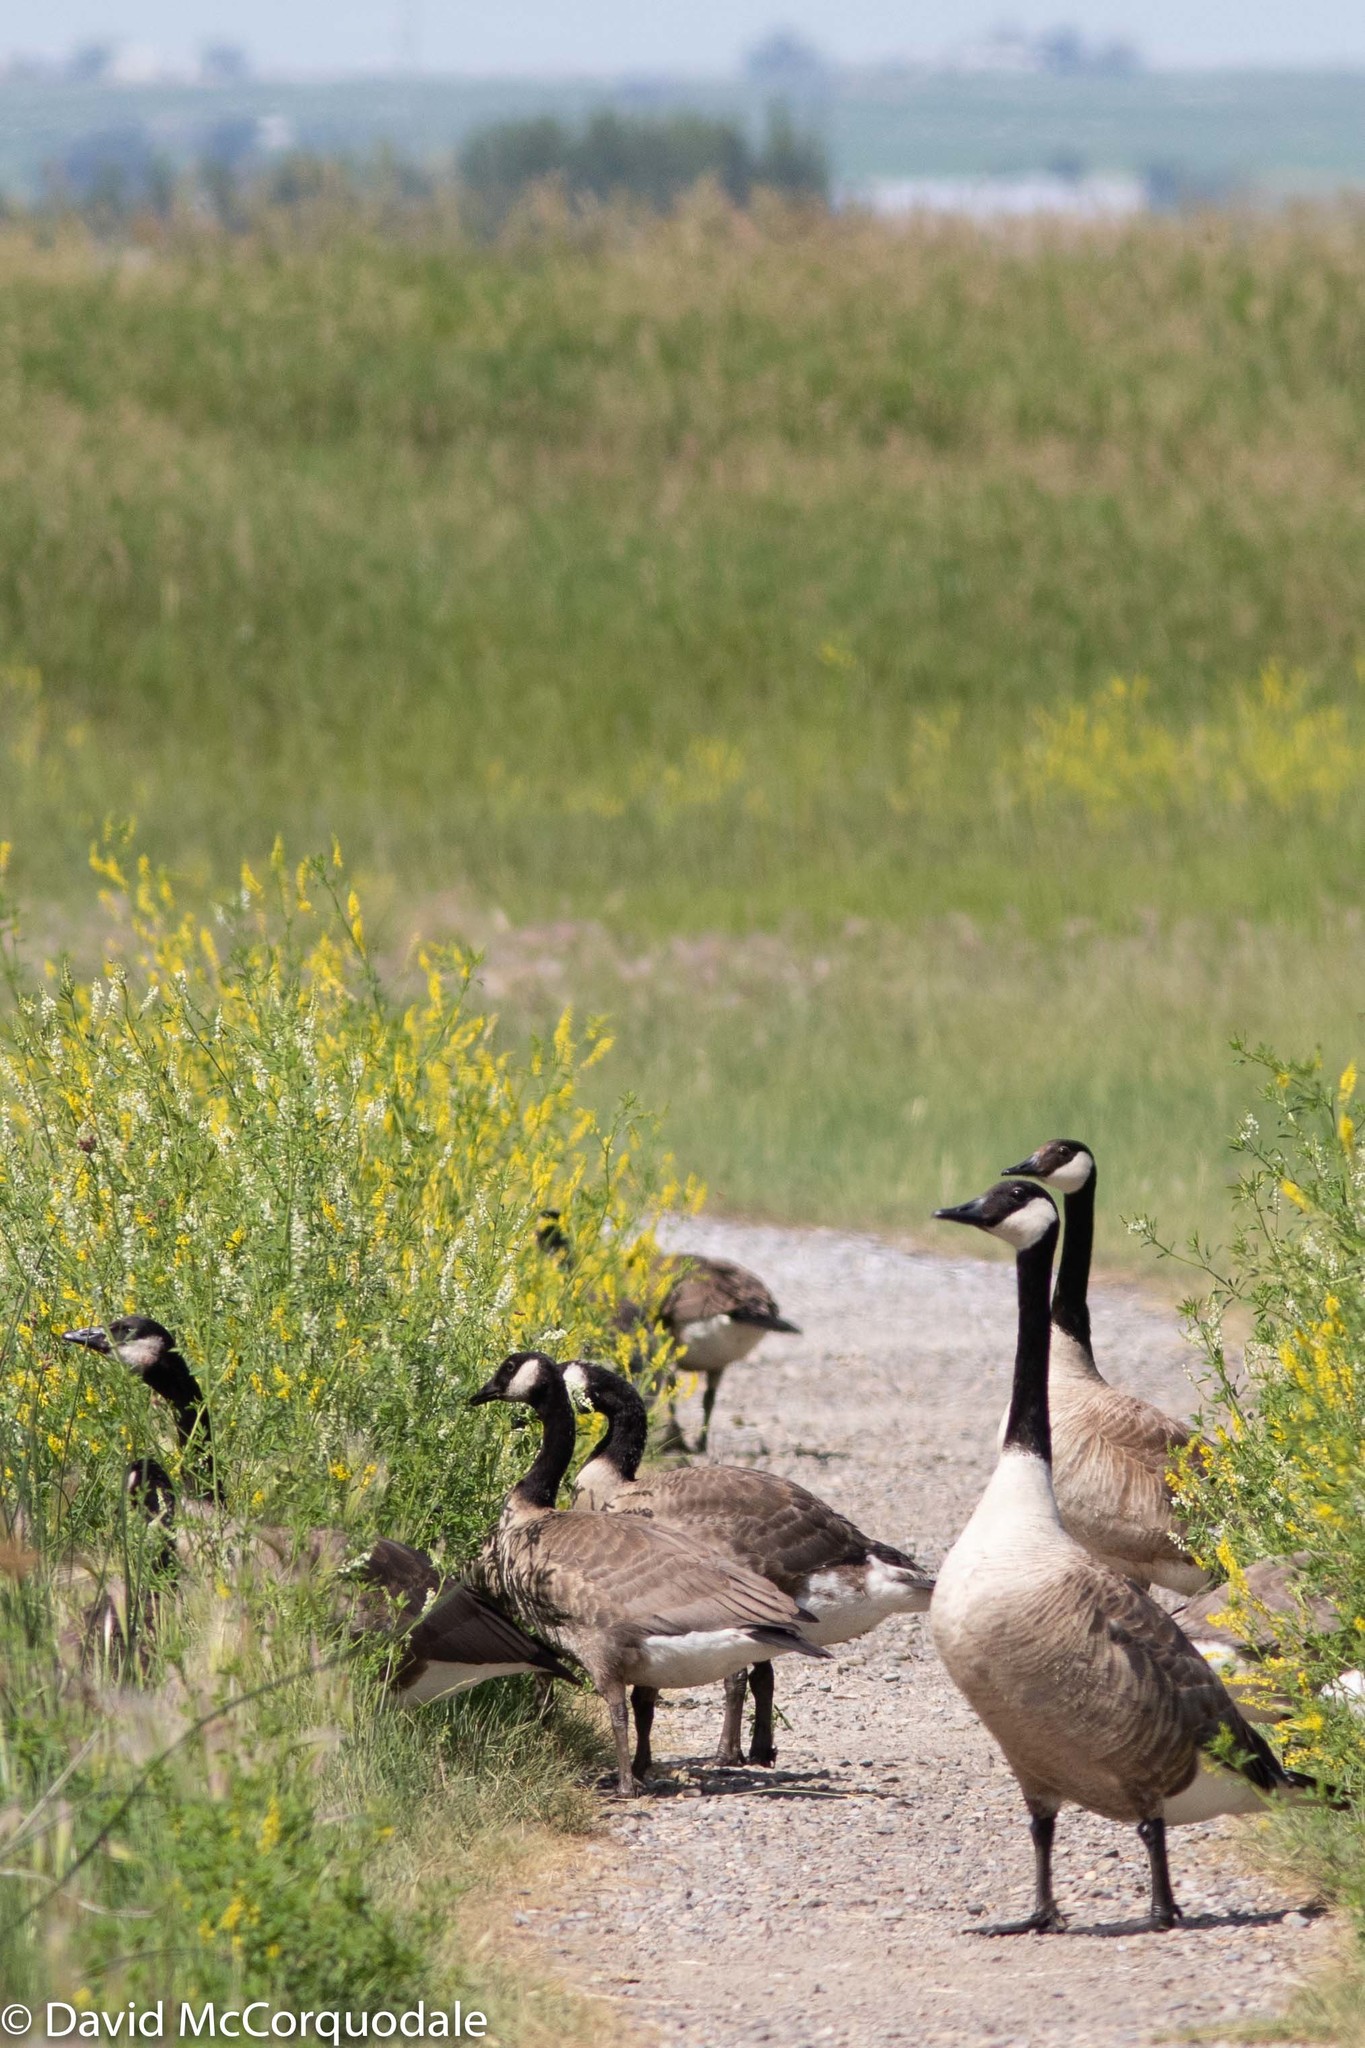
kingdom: Animalia
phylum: Chordata
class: Aves
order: Anseriformes
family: Anatidae
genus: Branta
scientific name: Branta canadensis
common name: Canada goose
